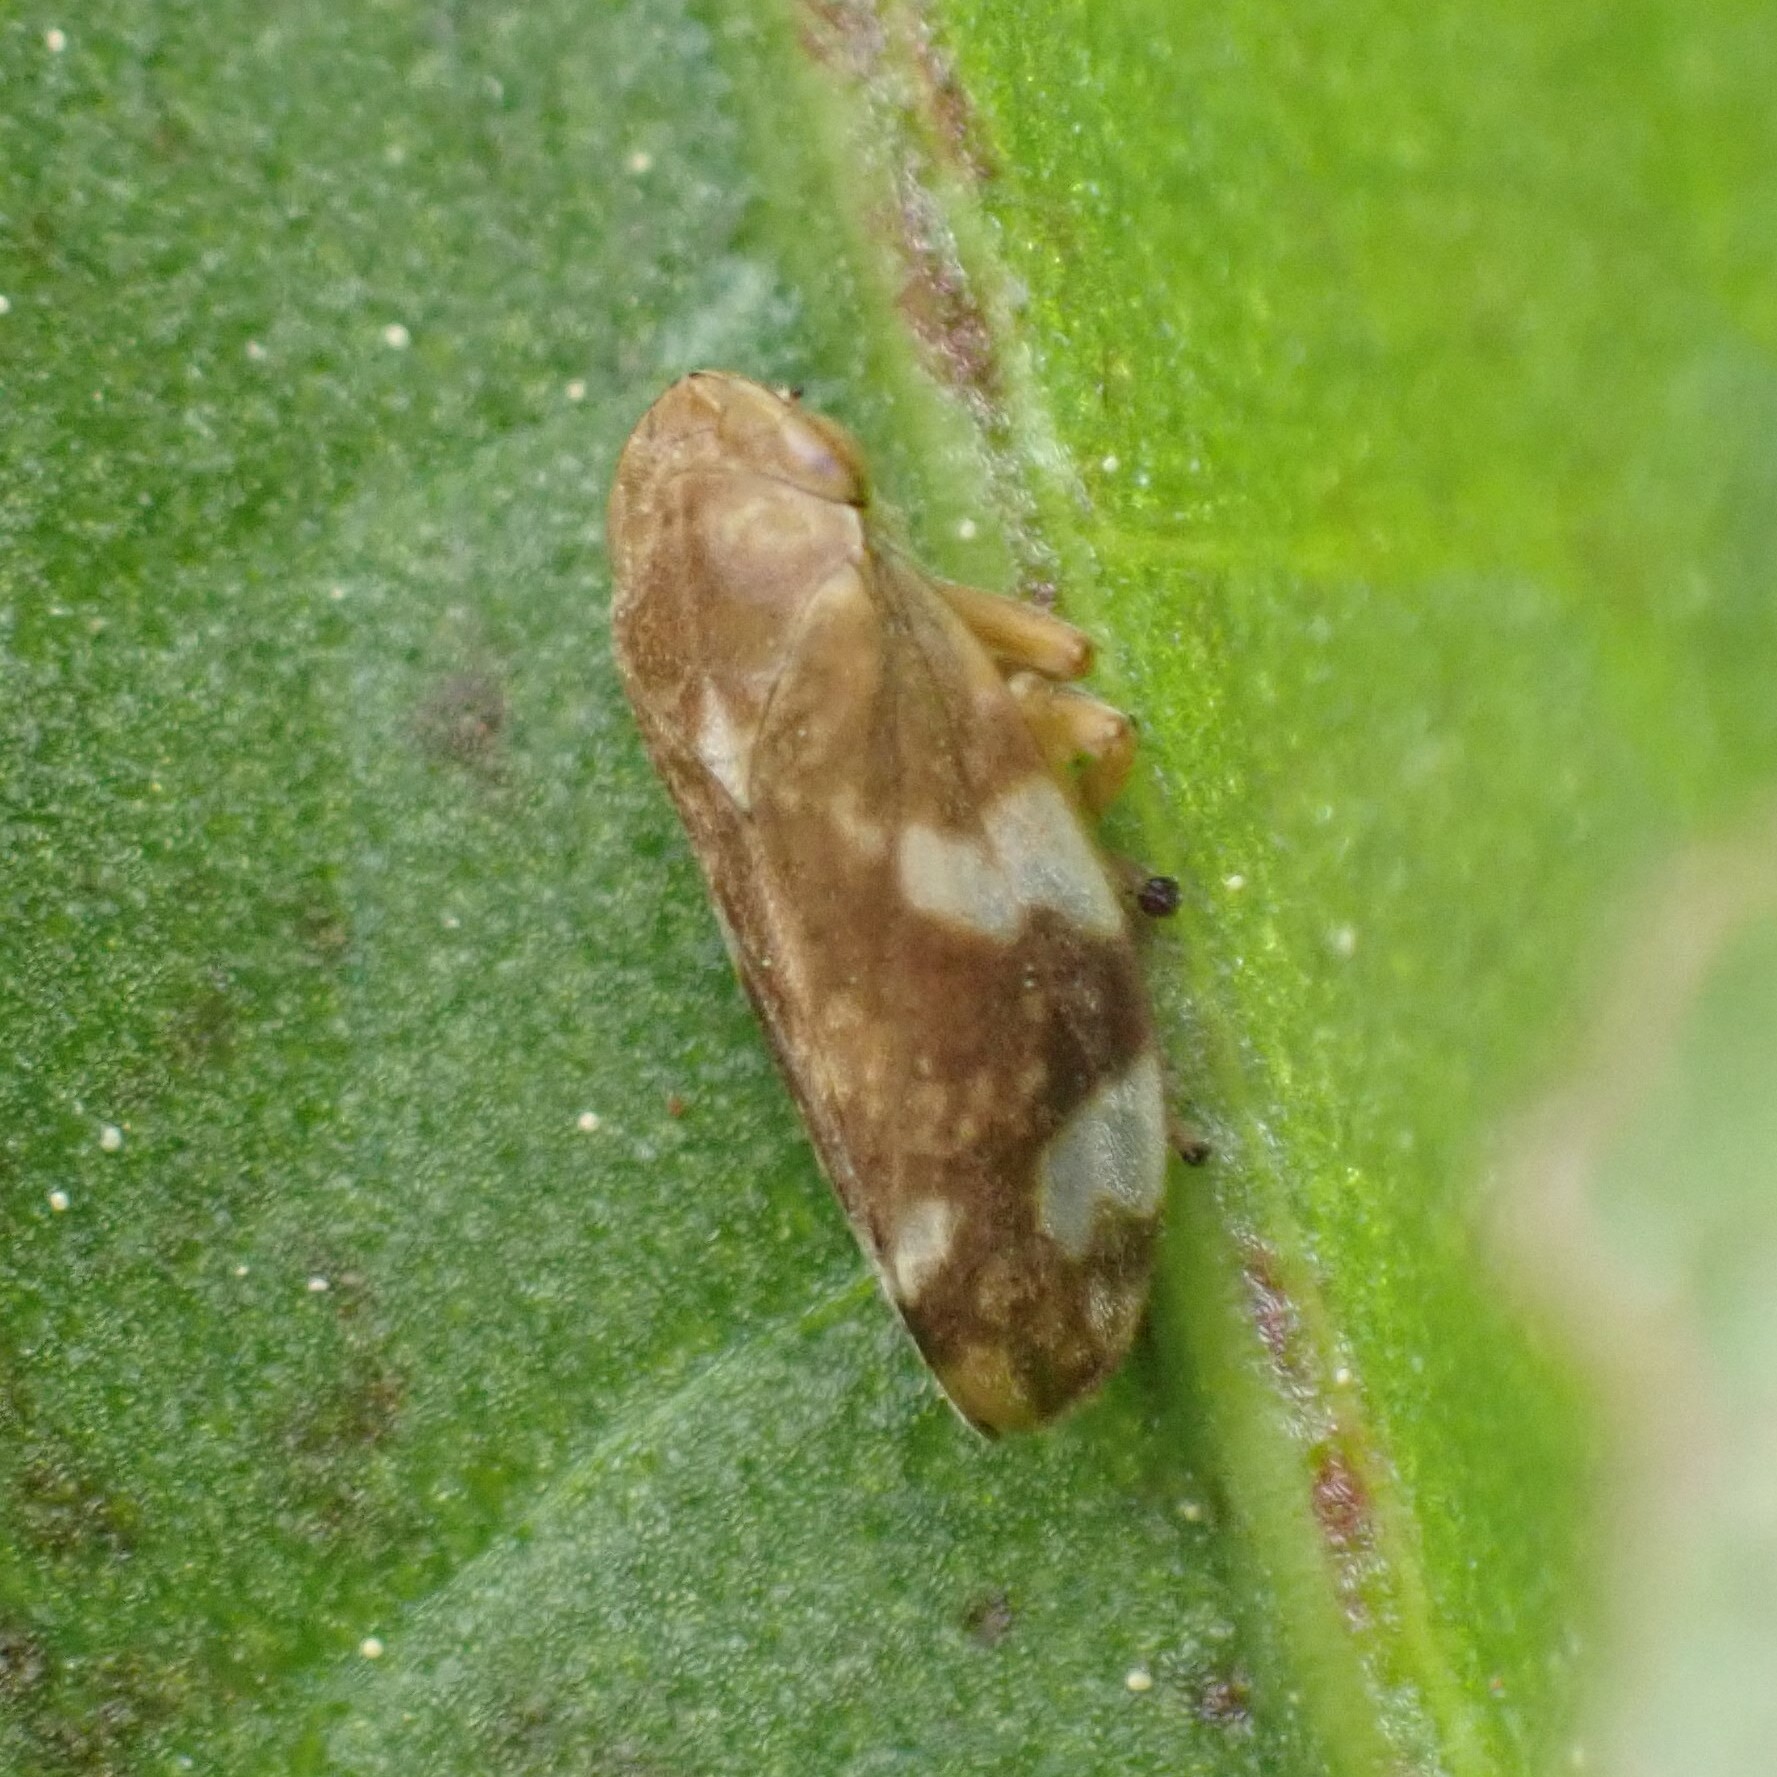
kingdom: Animalia
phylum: Arthropoda
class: Insecta
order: Hemiptera
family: Aphrophoridae
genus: Philaenus
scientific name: Philaenus spumarius
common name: Meadow spittlebug
